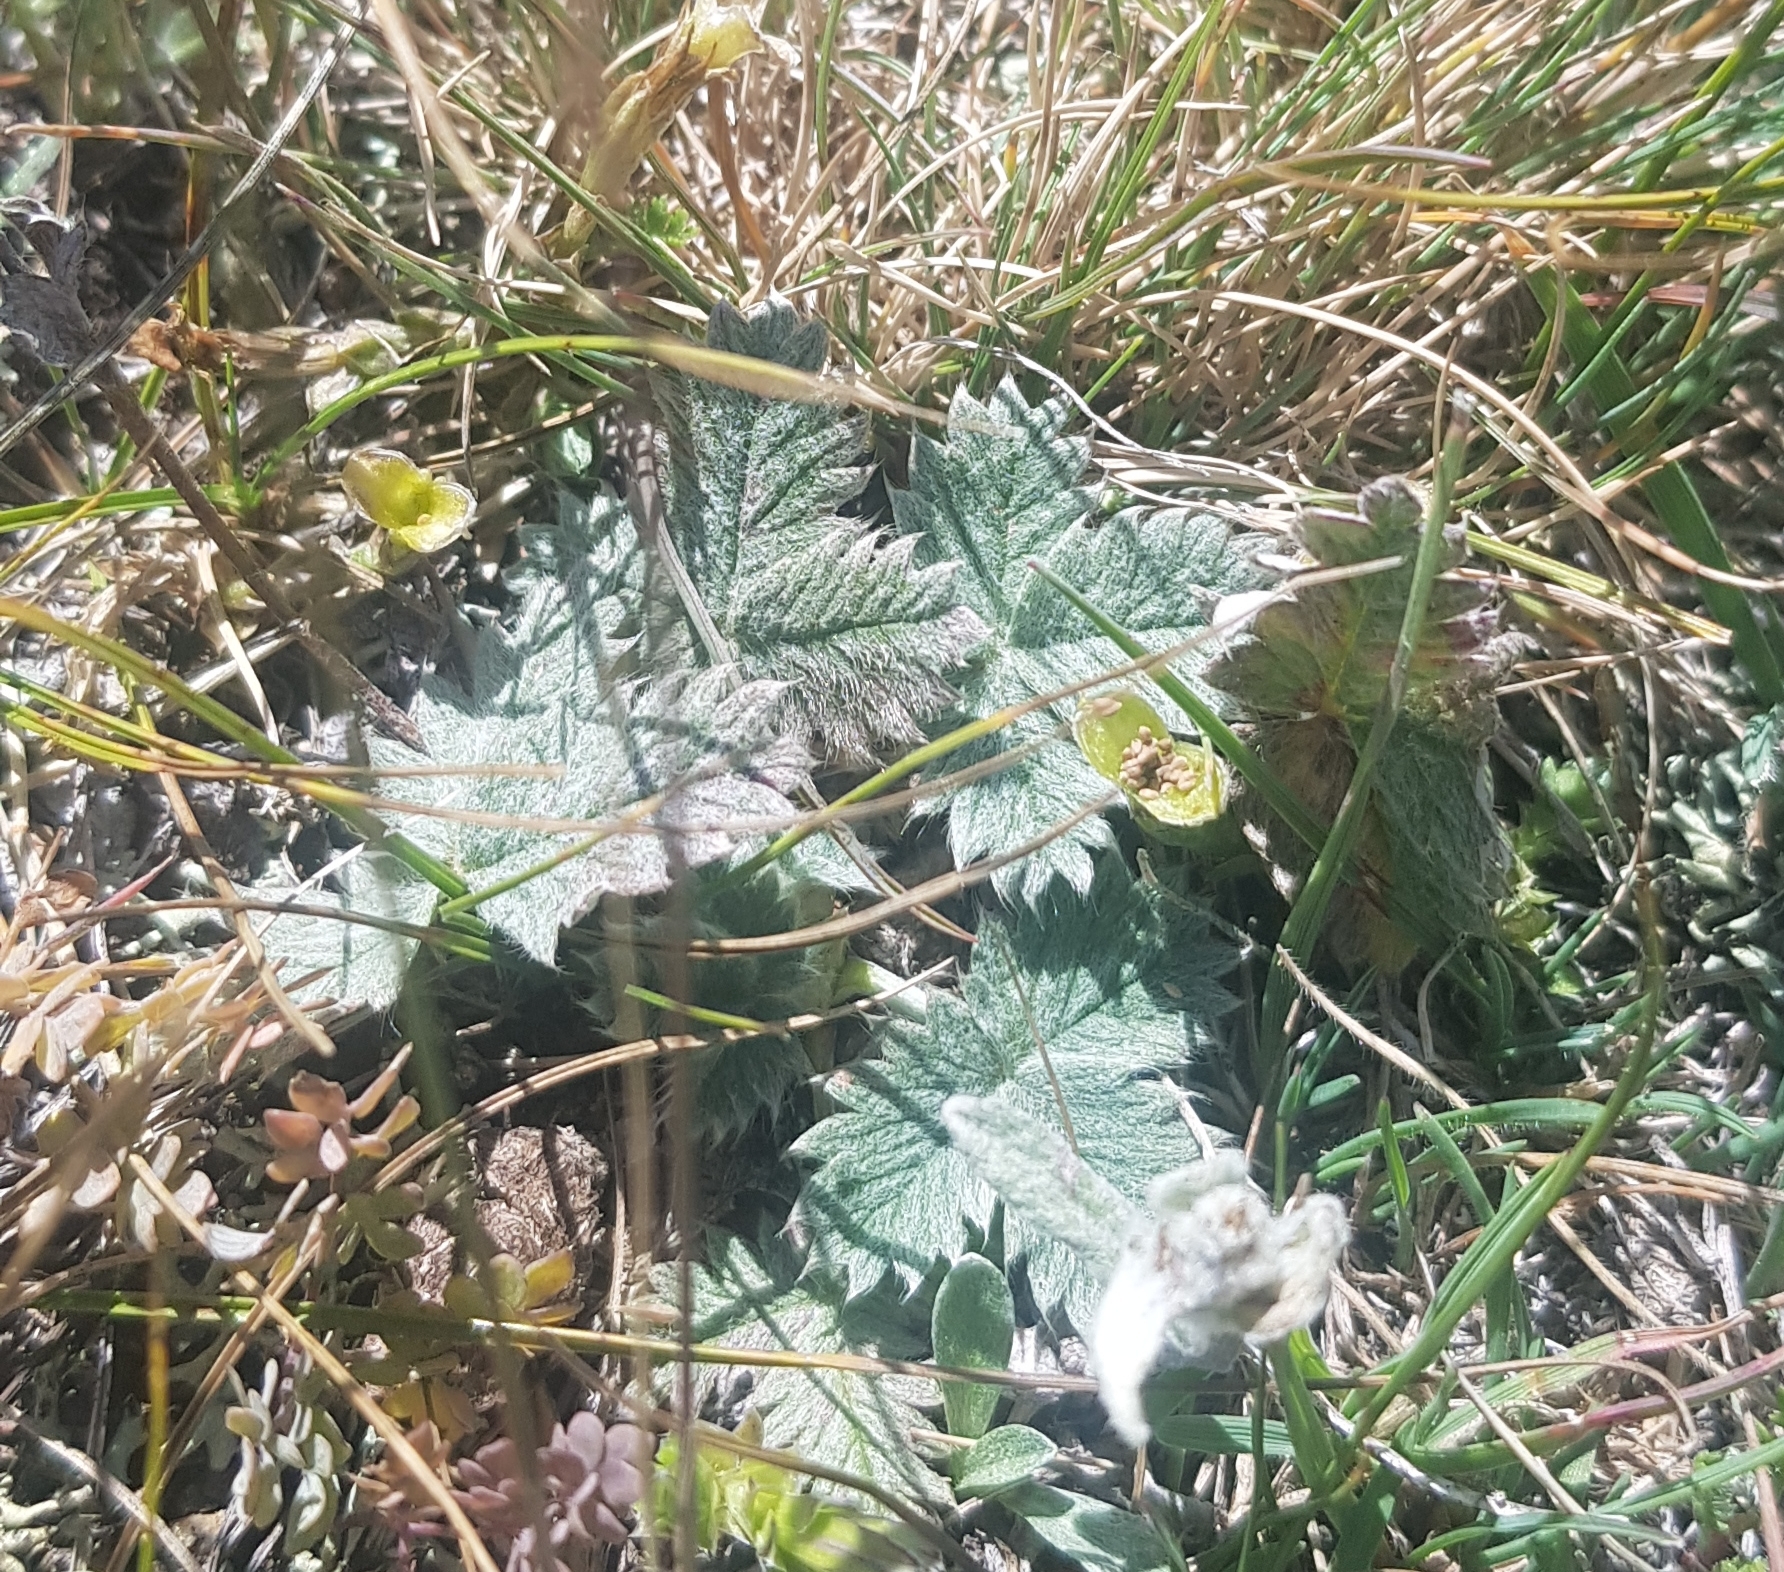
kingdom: Plantae
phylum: Tracheophyta
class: Magnoliopsida
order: Rosales
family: Rosaceae
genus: Potentilla
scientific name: Potentilla arenosa
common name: Bluff cinquefoil
